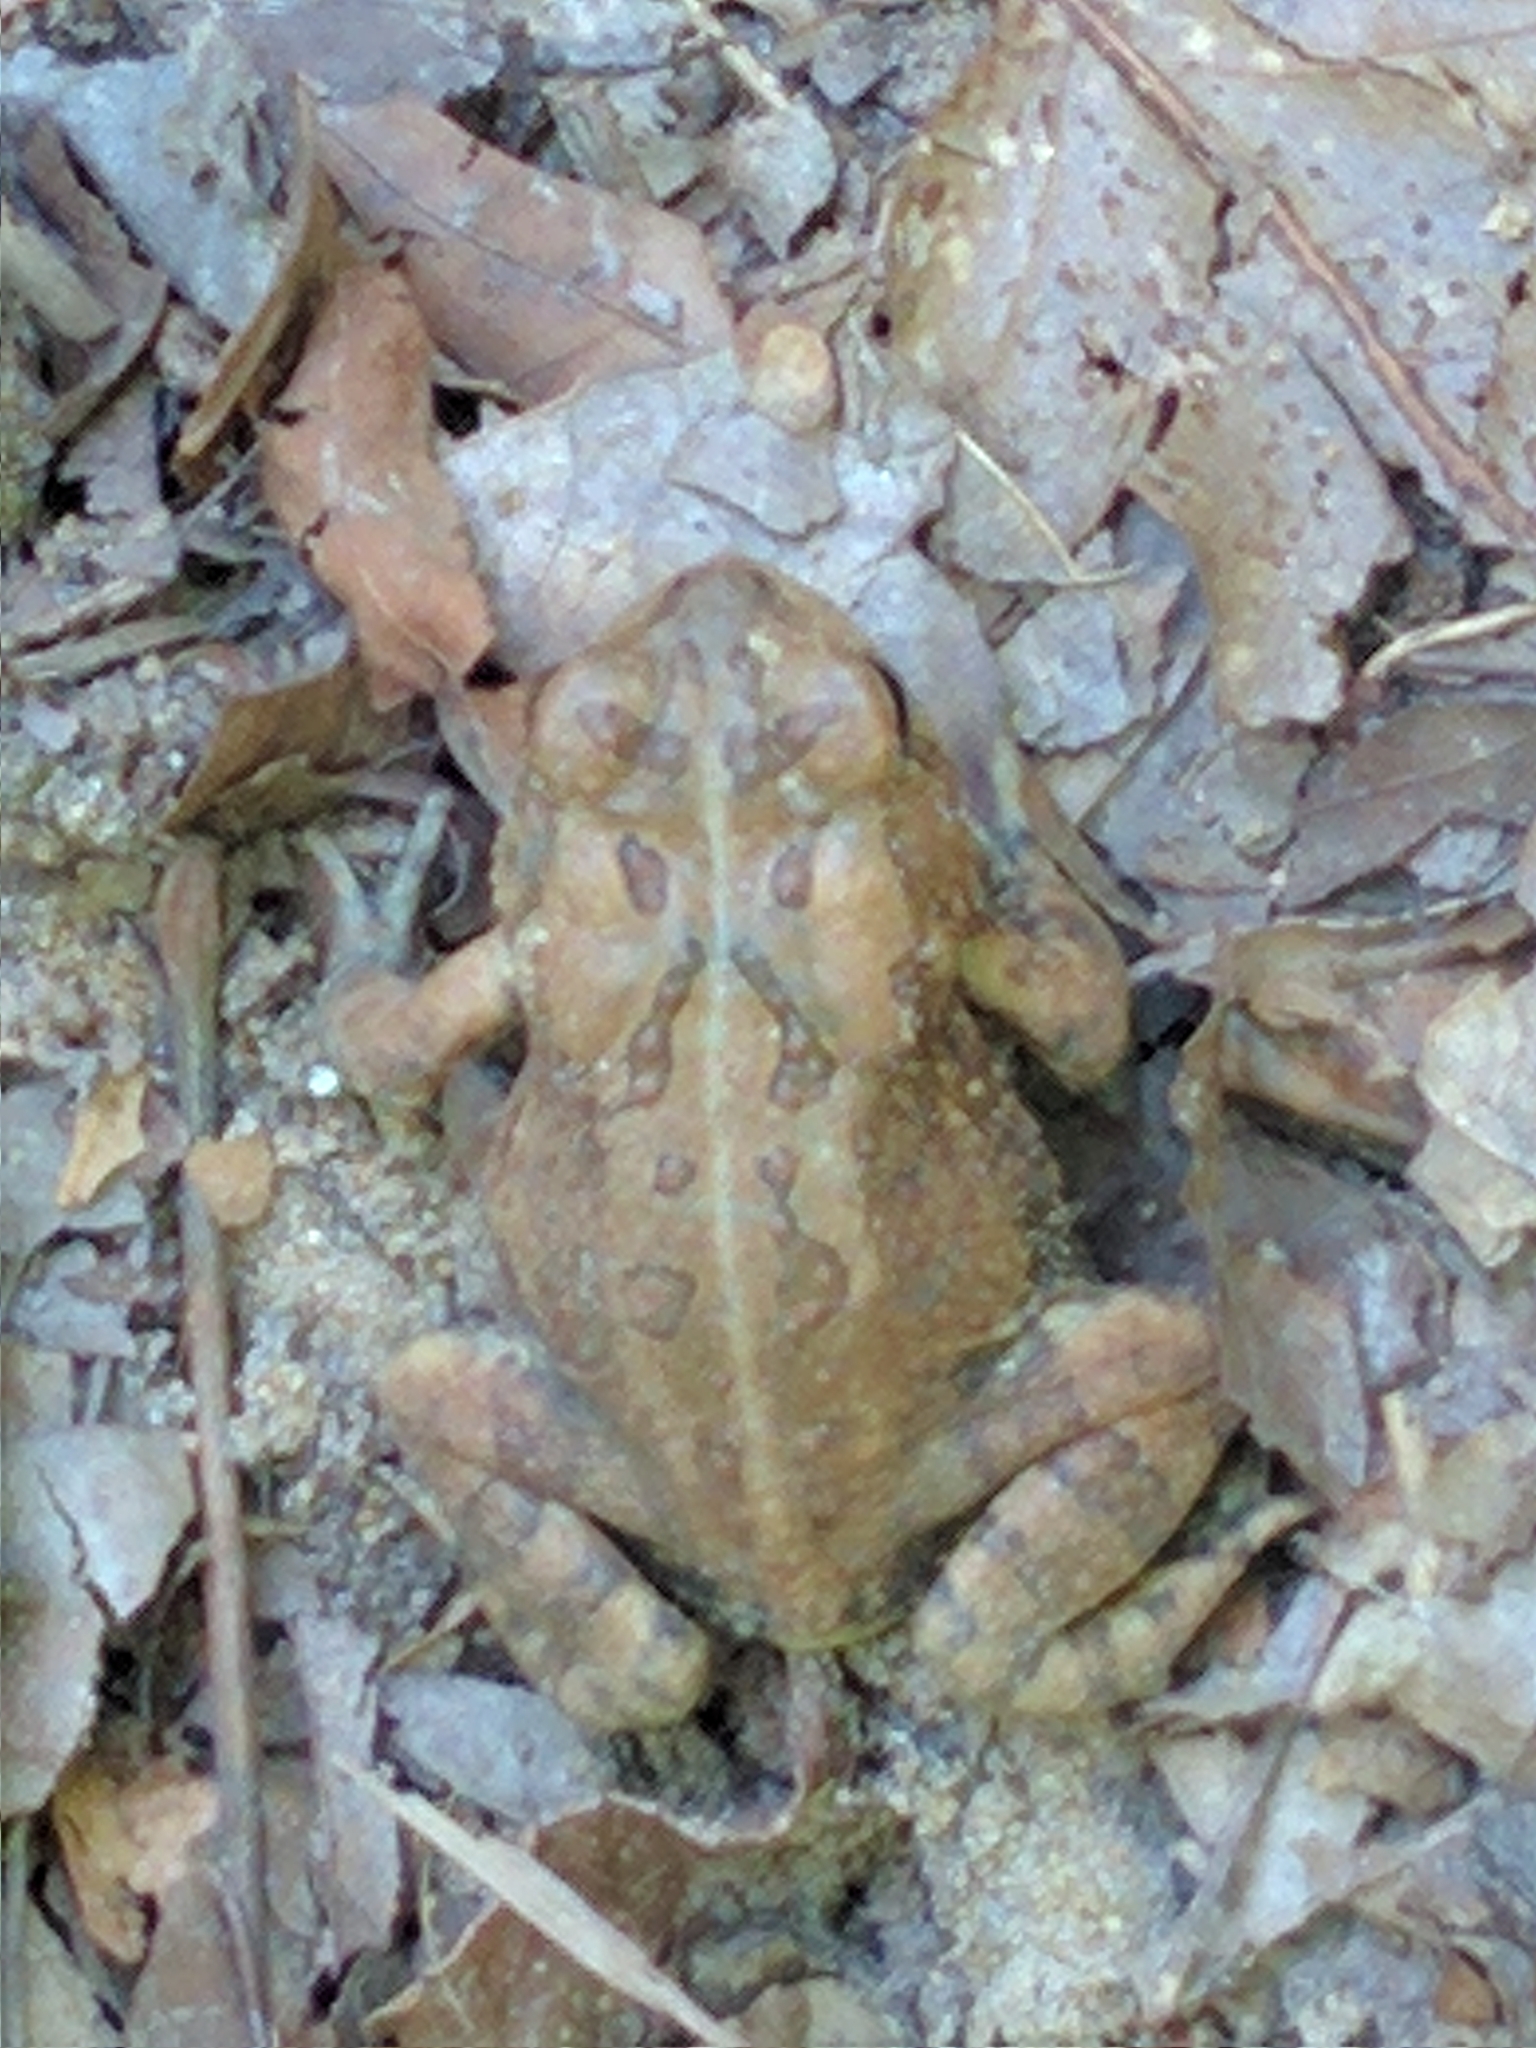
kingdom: Animalia
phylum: Chordata
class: Amphibia
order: Anura
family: Bufonidae
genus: Anaxyrus
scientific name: Anaxyrus fowleri
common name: Fowler's toad
